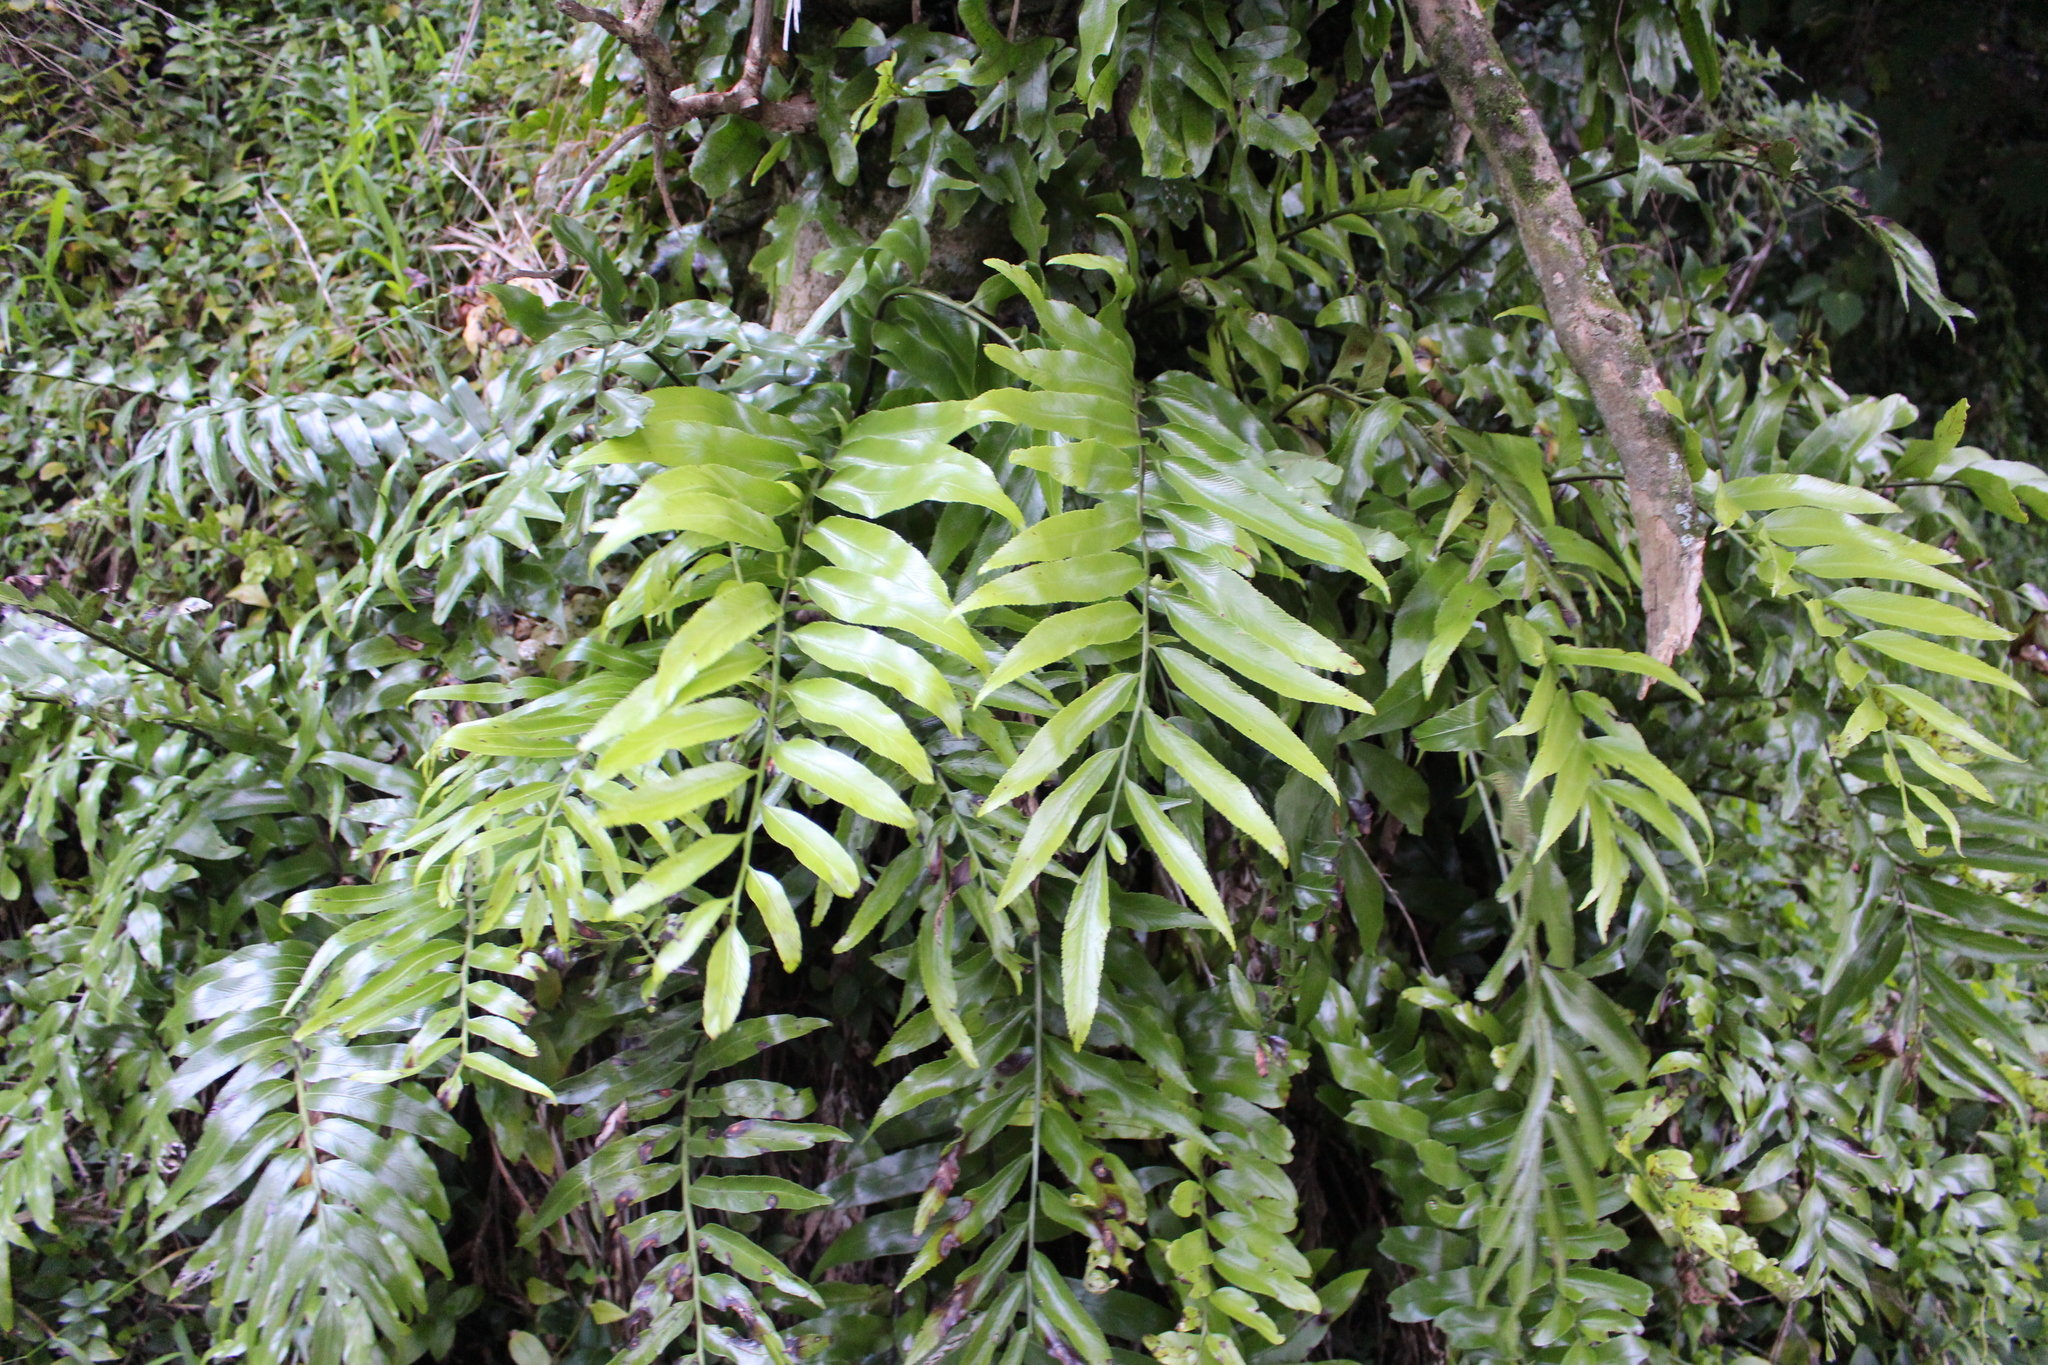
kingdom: Plantae
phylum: Tracheophyta
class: Polypodiopsida
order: Polypodiales
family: Aspleniaceae
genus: Asplenium
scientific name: Asplenium oblongifolium
